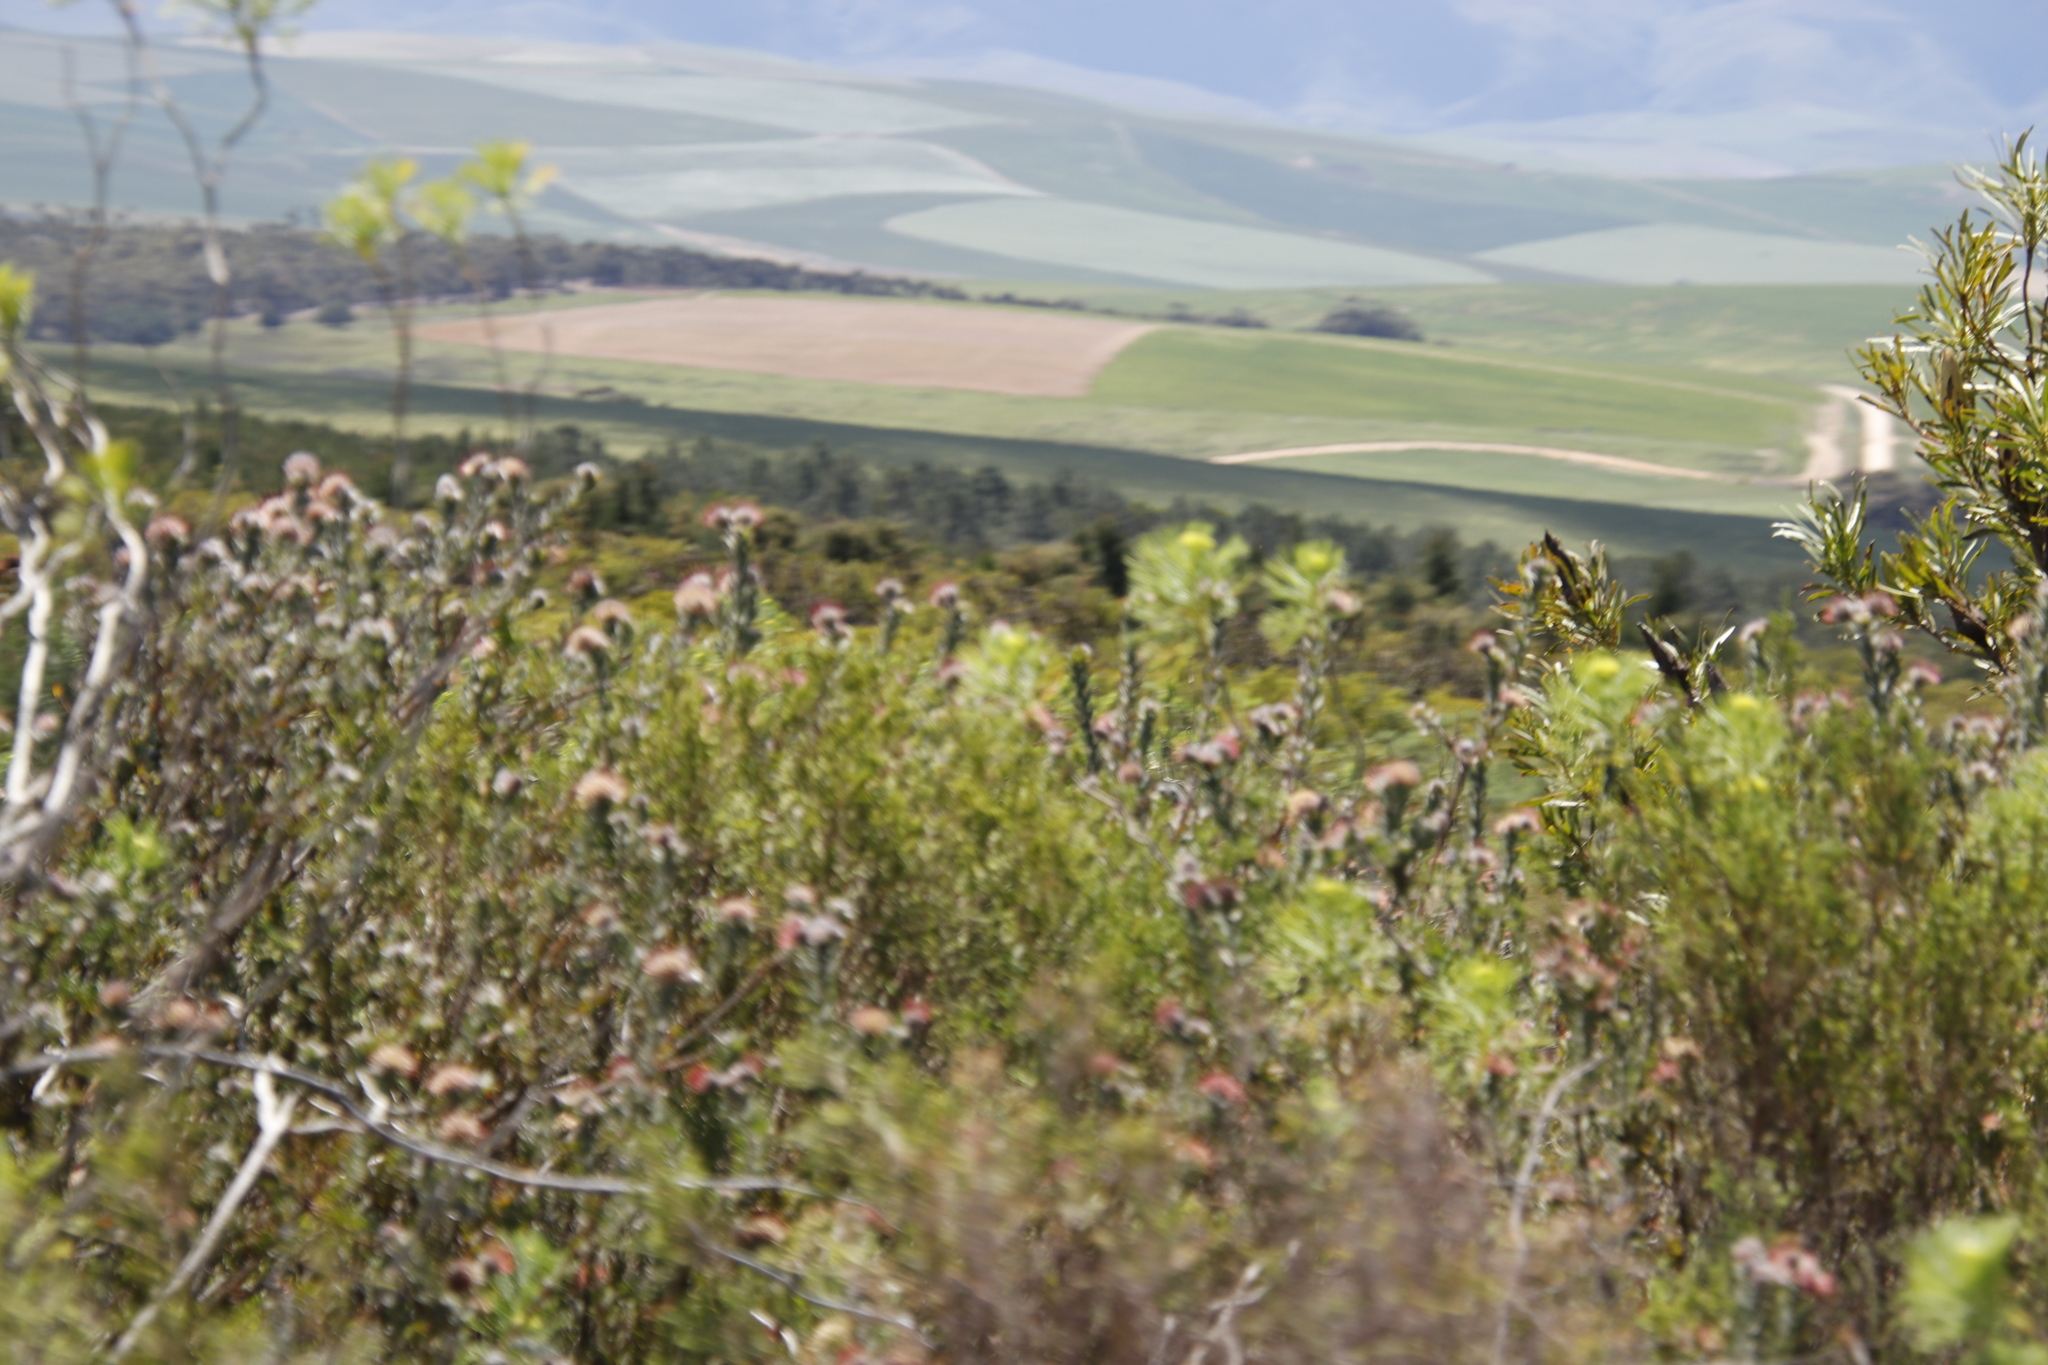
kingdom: Plantae
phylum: Tracheophyta
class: Magnoliopsida
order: Proteales
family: Proteaceae
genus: Leucospermum
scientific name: Leucospermum calligerum
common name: Arid pincushion
